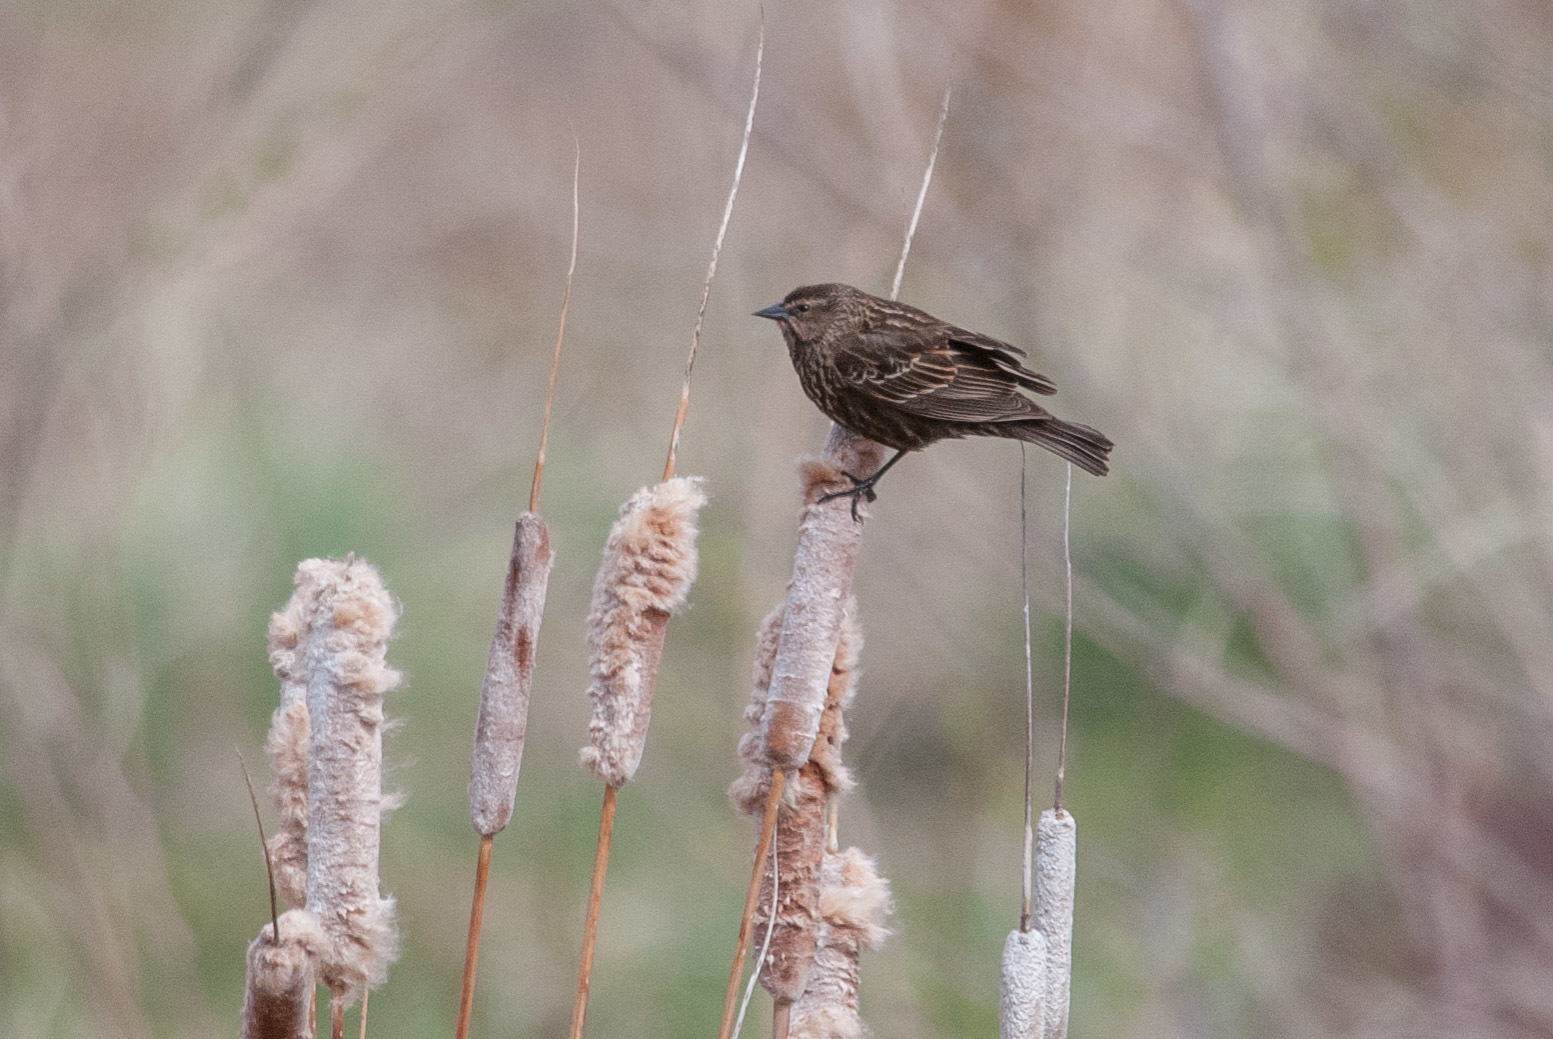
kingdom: Animalia
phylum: Chordata
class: Aves
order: Passeriformes
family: Icteridae
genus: Agelaius
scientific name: Agelaius phoeniceus
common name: Red-winged blackbird
